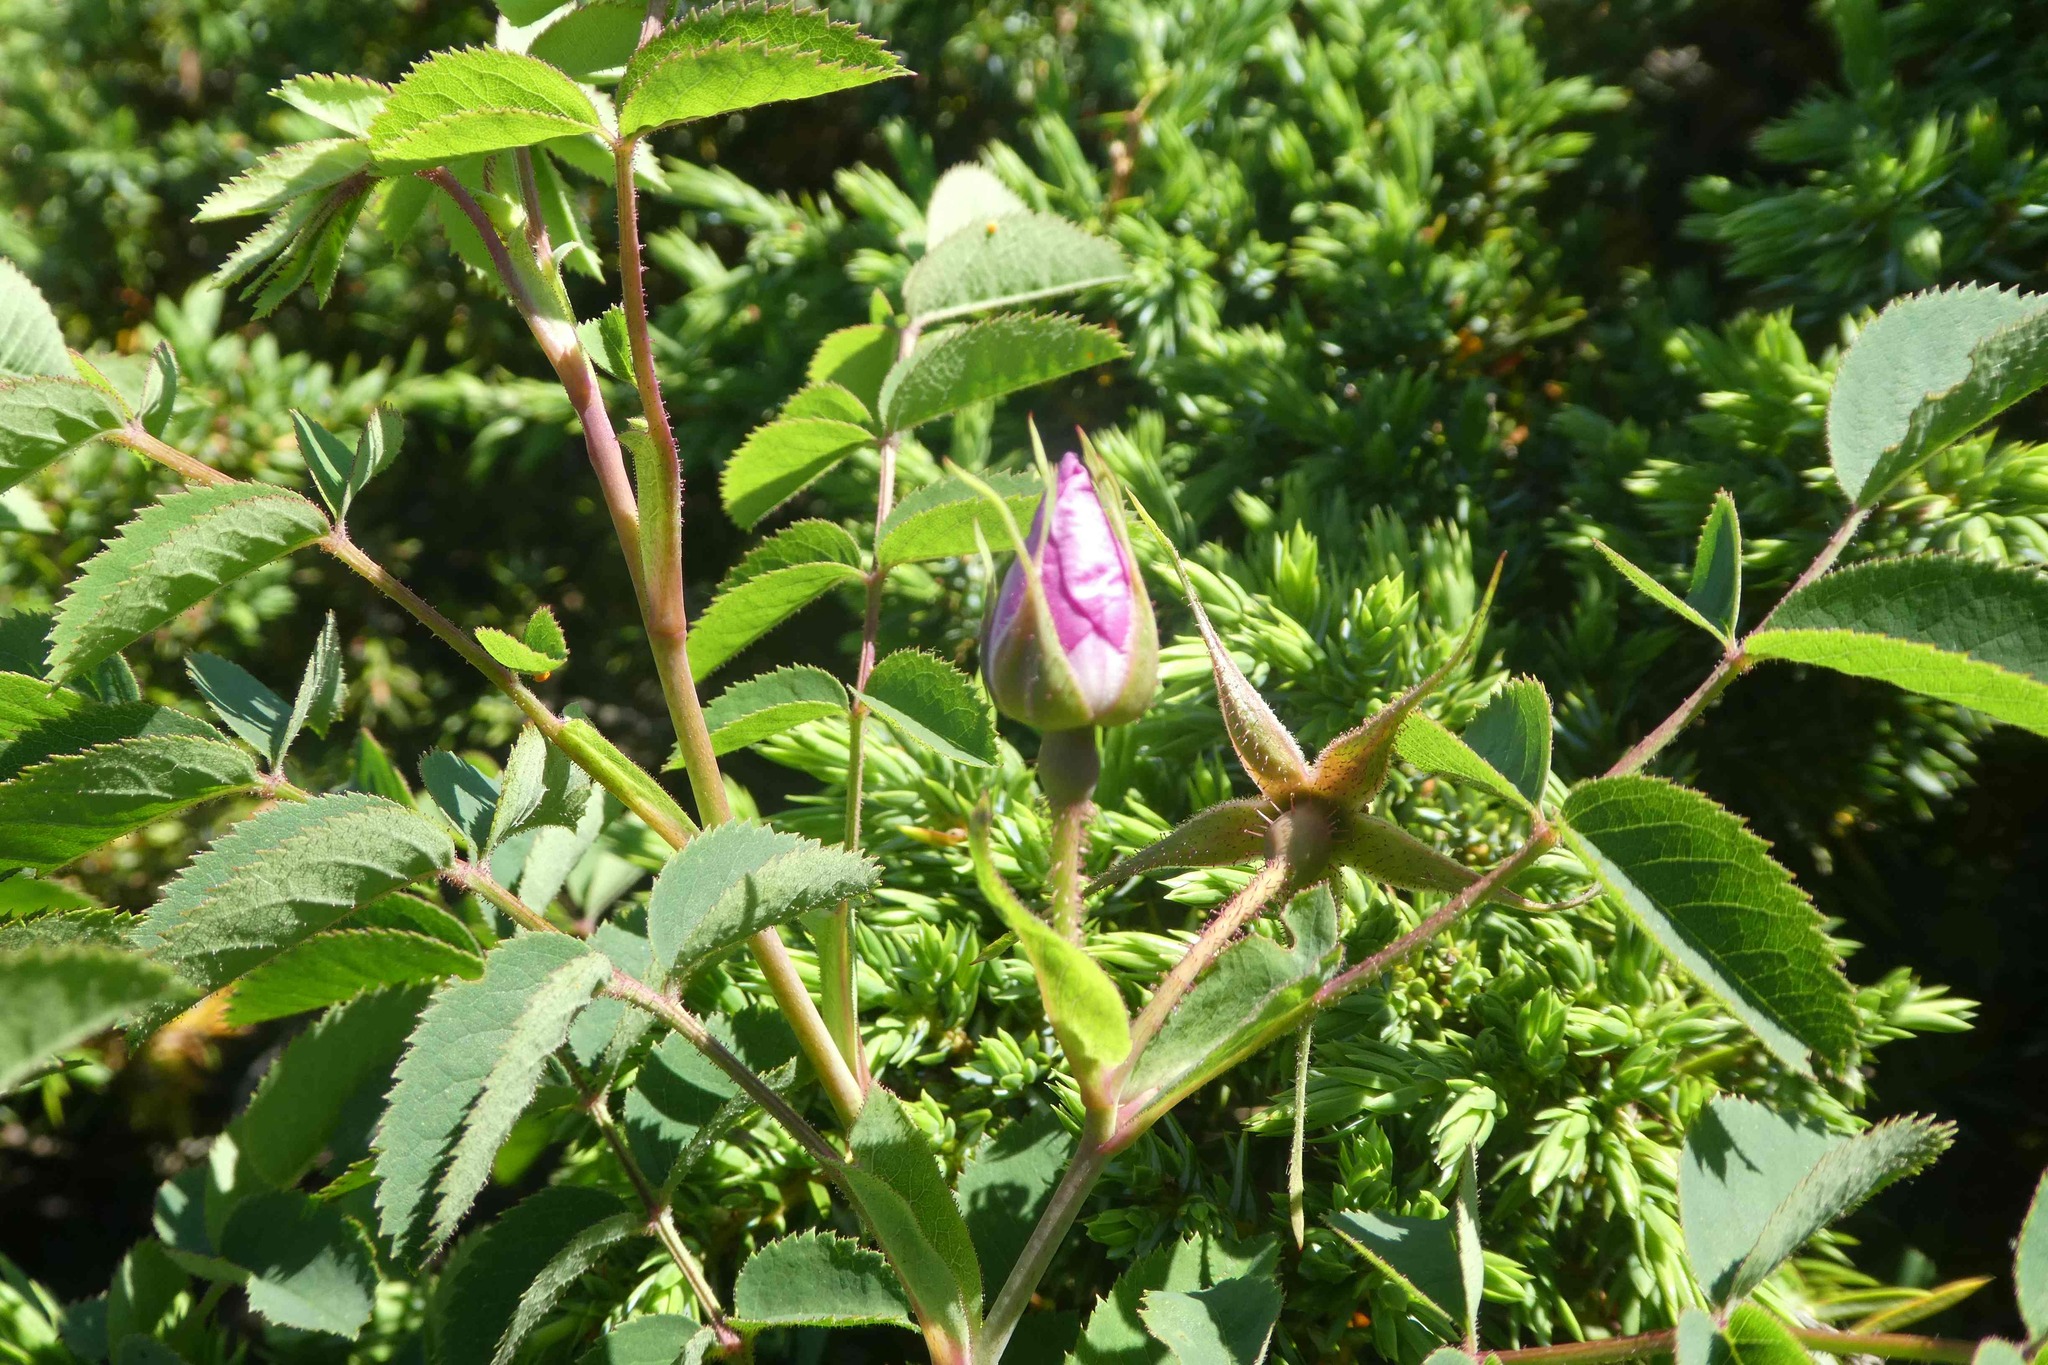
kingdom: Plantae
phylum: Tracheophyta
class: Magnoliopsida
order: Rosales
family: Rosaceae
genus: Rosa
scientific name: Rosa pendulina
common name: Alpine rose
